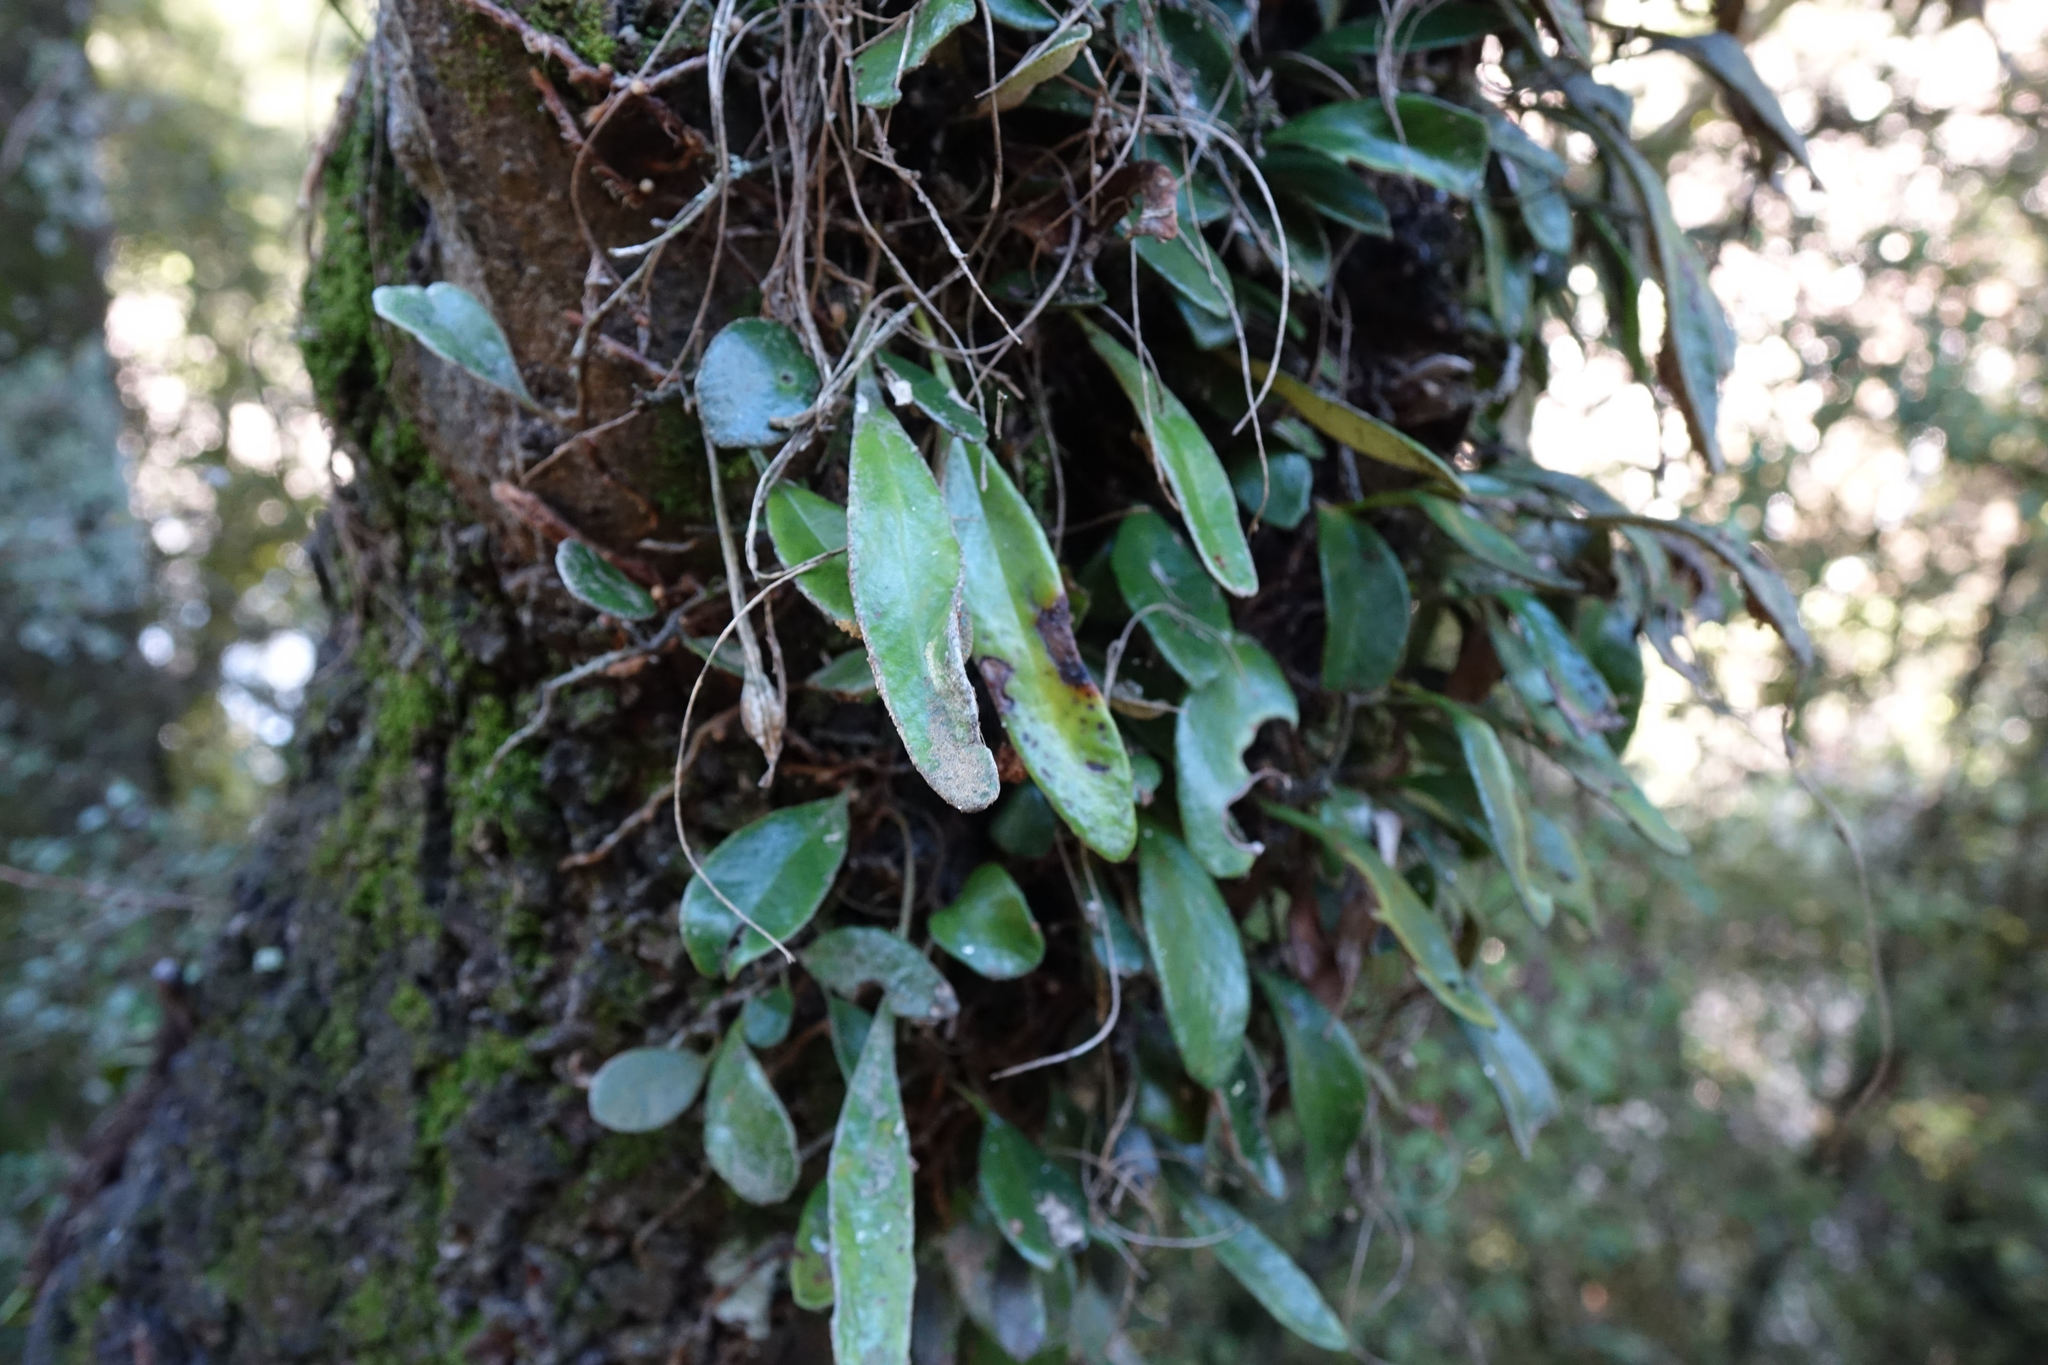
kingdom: Plantae
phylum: Tracheophyta
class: Polypodiopsida
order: Polypodiales
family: Polypodiaceae
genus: Pyrrosia
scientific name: Pyrrosia eleagnifolia
